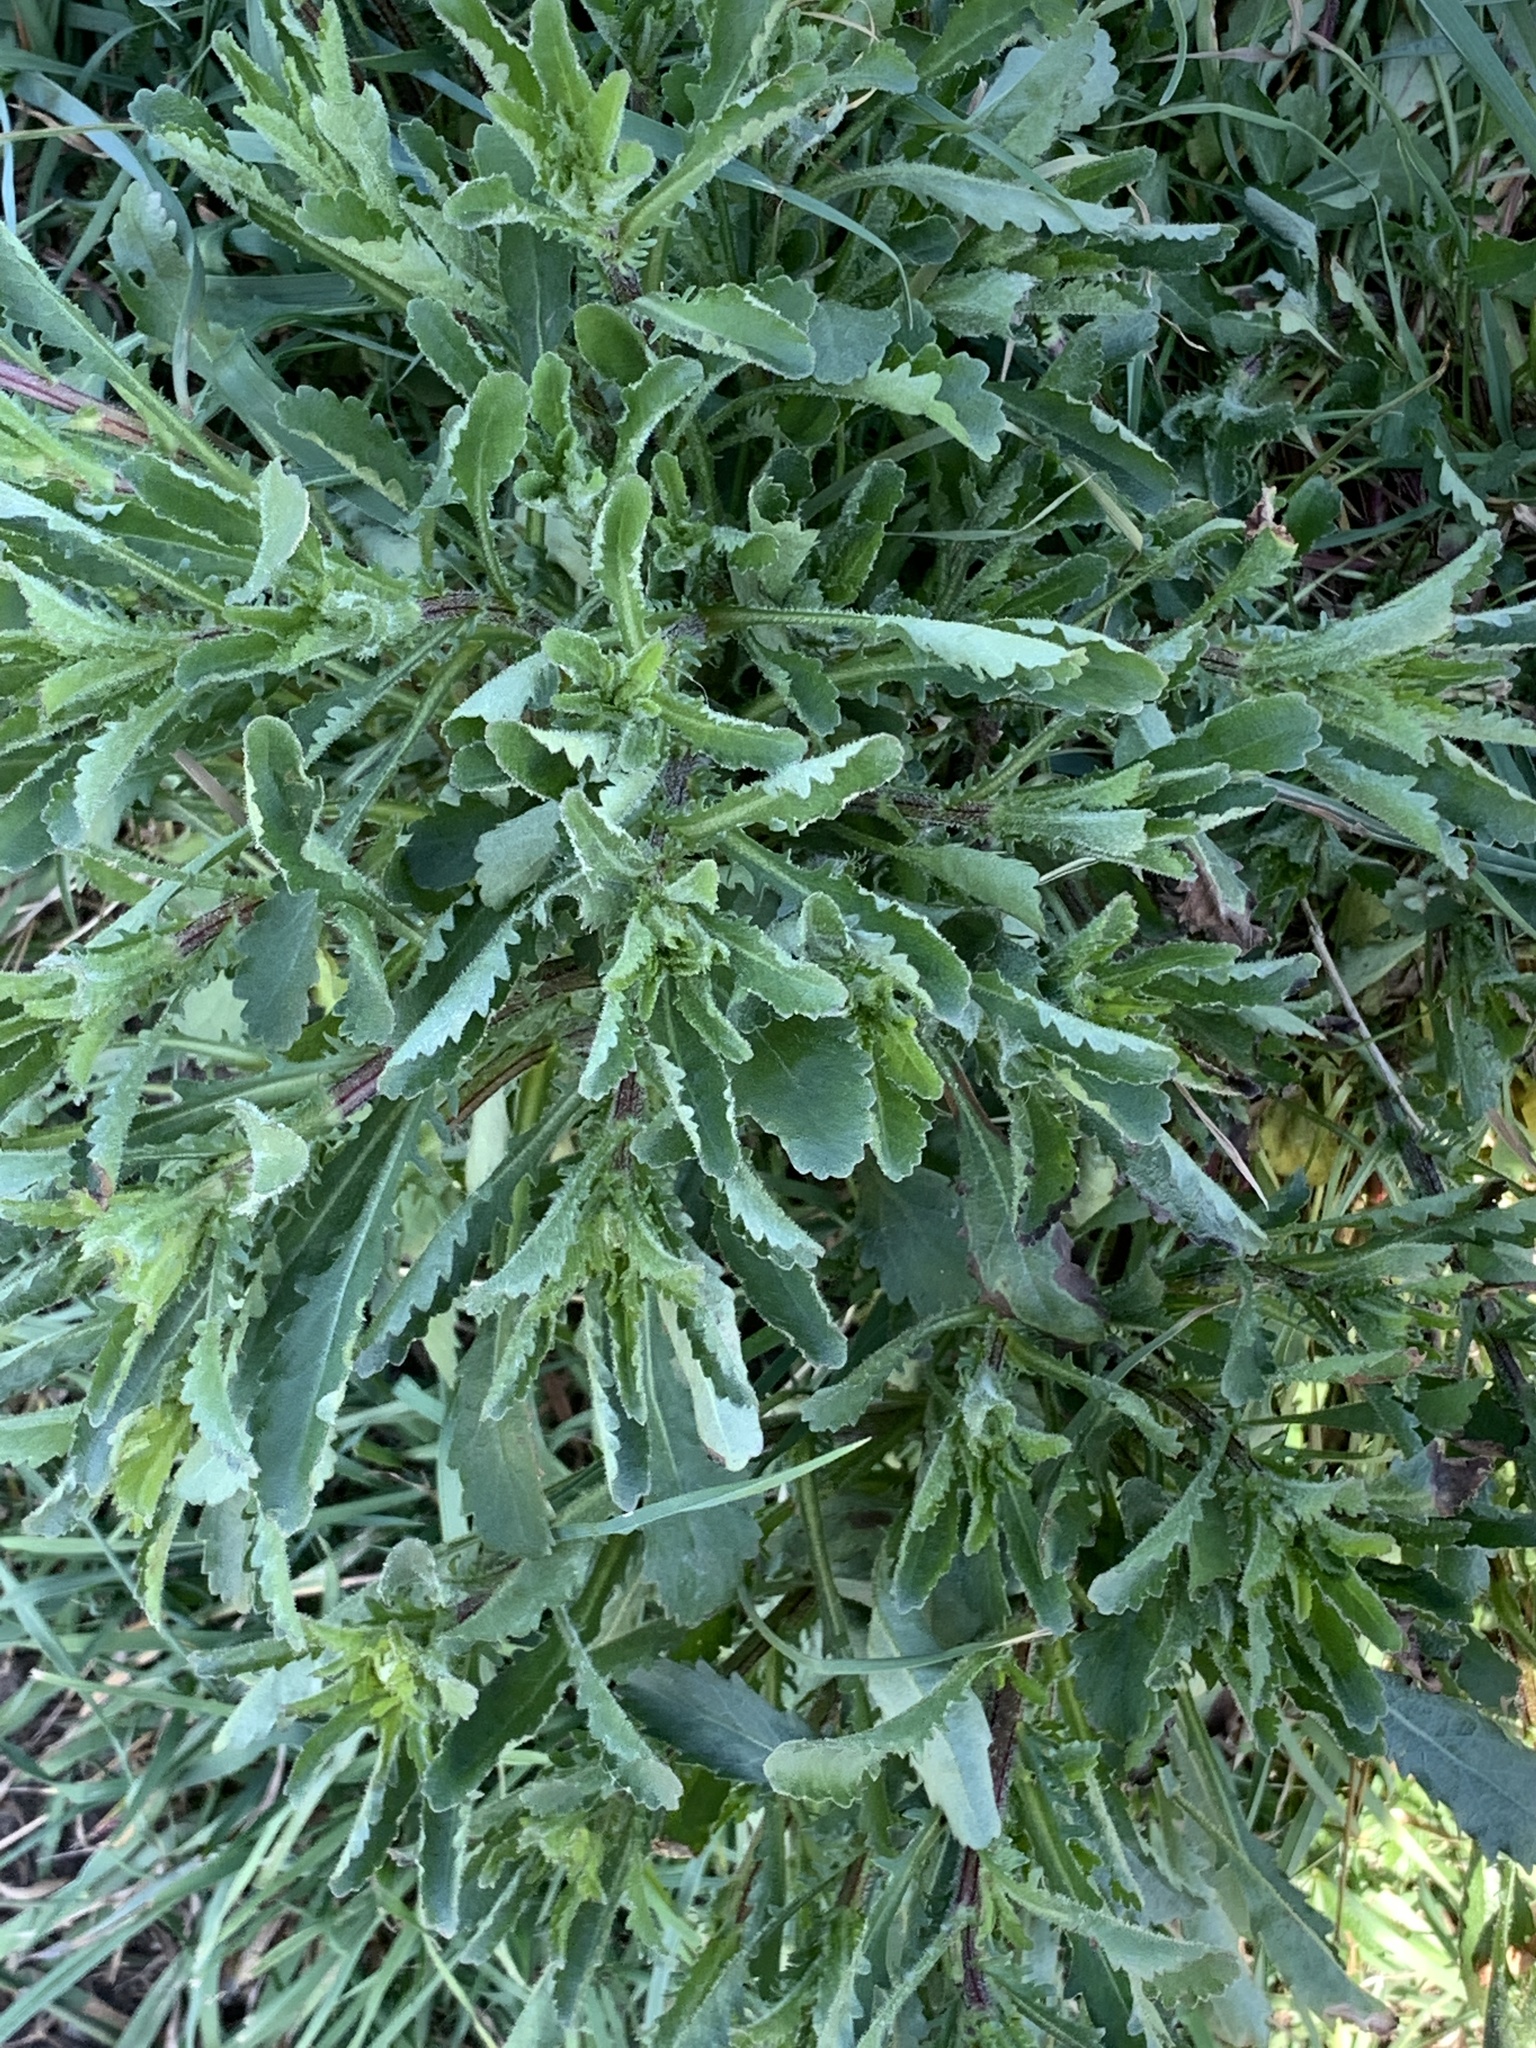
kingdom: Plantae
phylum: Tracheophyta
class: Magnoliopsida
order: Asterales
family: Asteraceae
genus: Leucanthemum
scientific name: Leucanthemum vulgare
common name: Oxeye daisy
